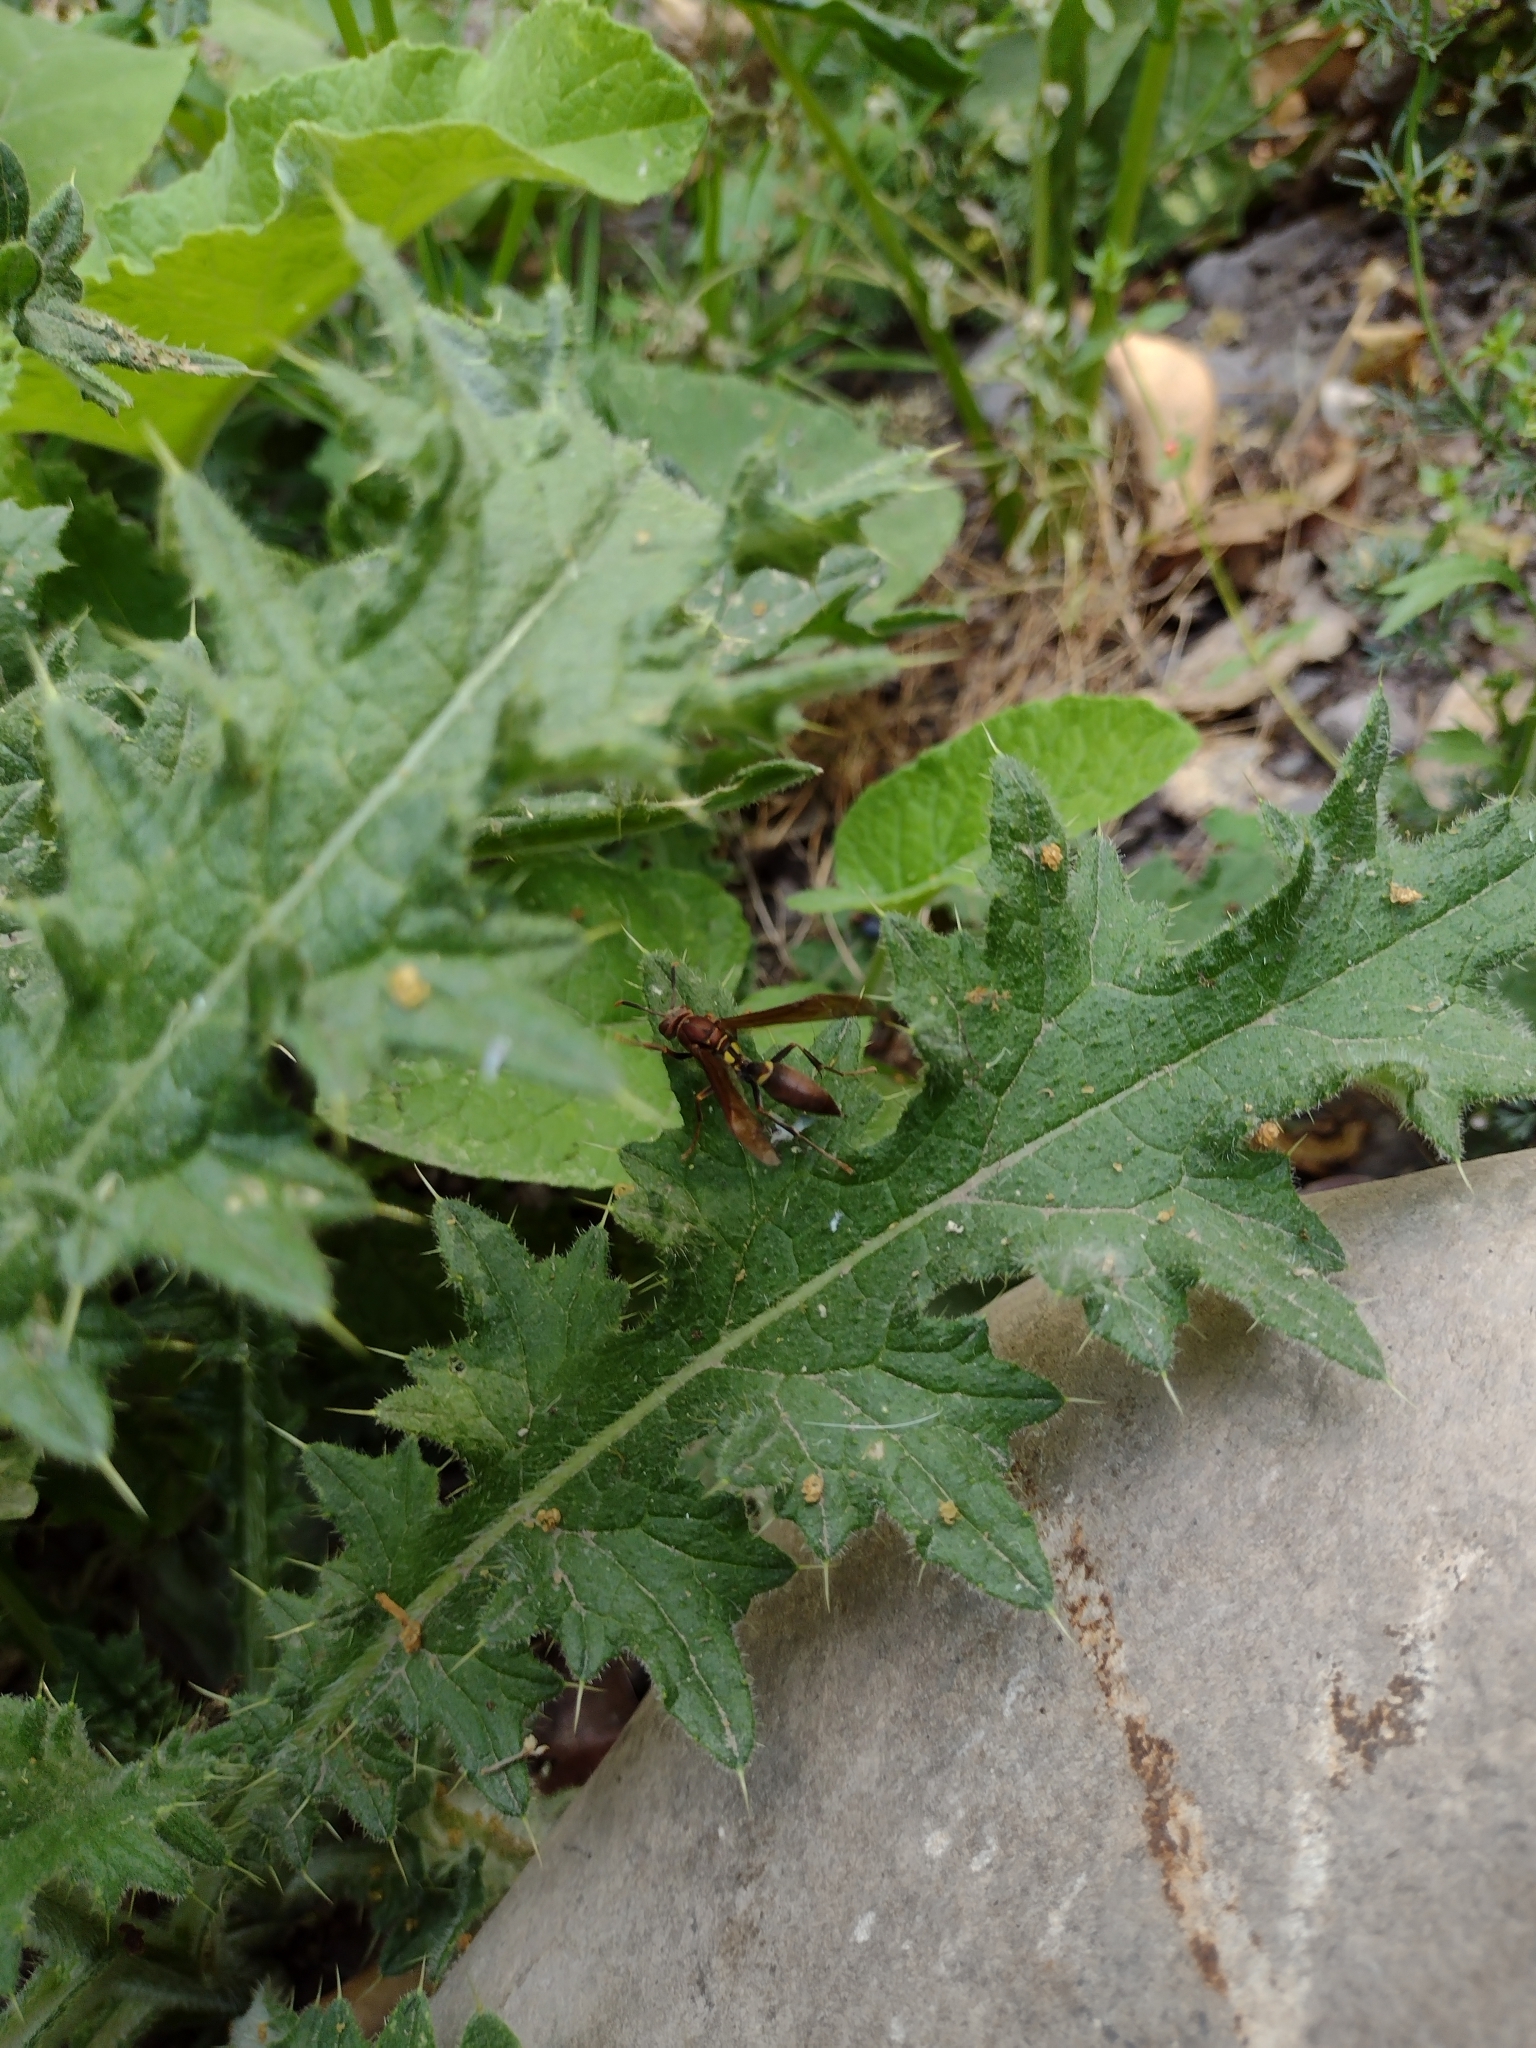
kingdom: Animalia
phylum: Arthropoda
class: Insecta
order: Hymenoptera
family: Pompilidae
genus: Aphanilopterus
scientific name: Aphanilopterus
